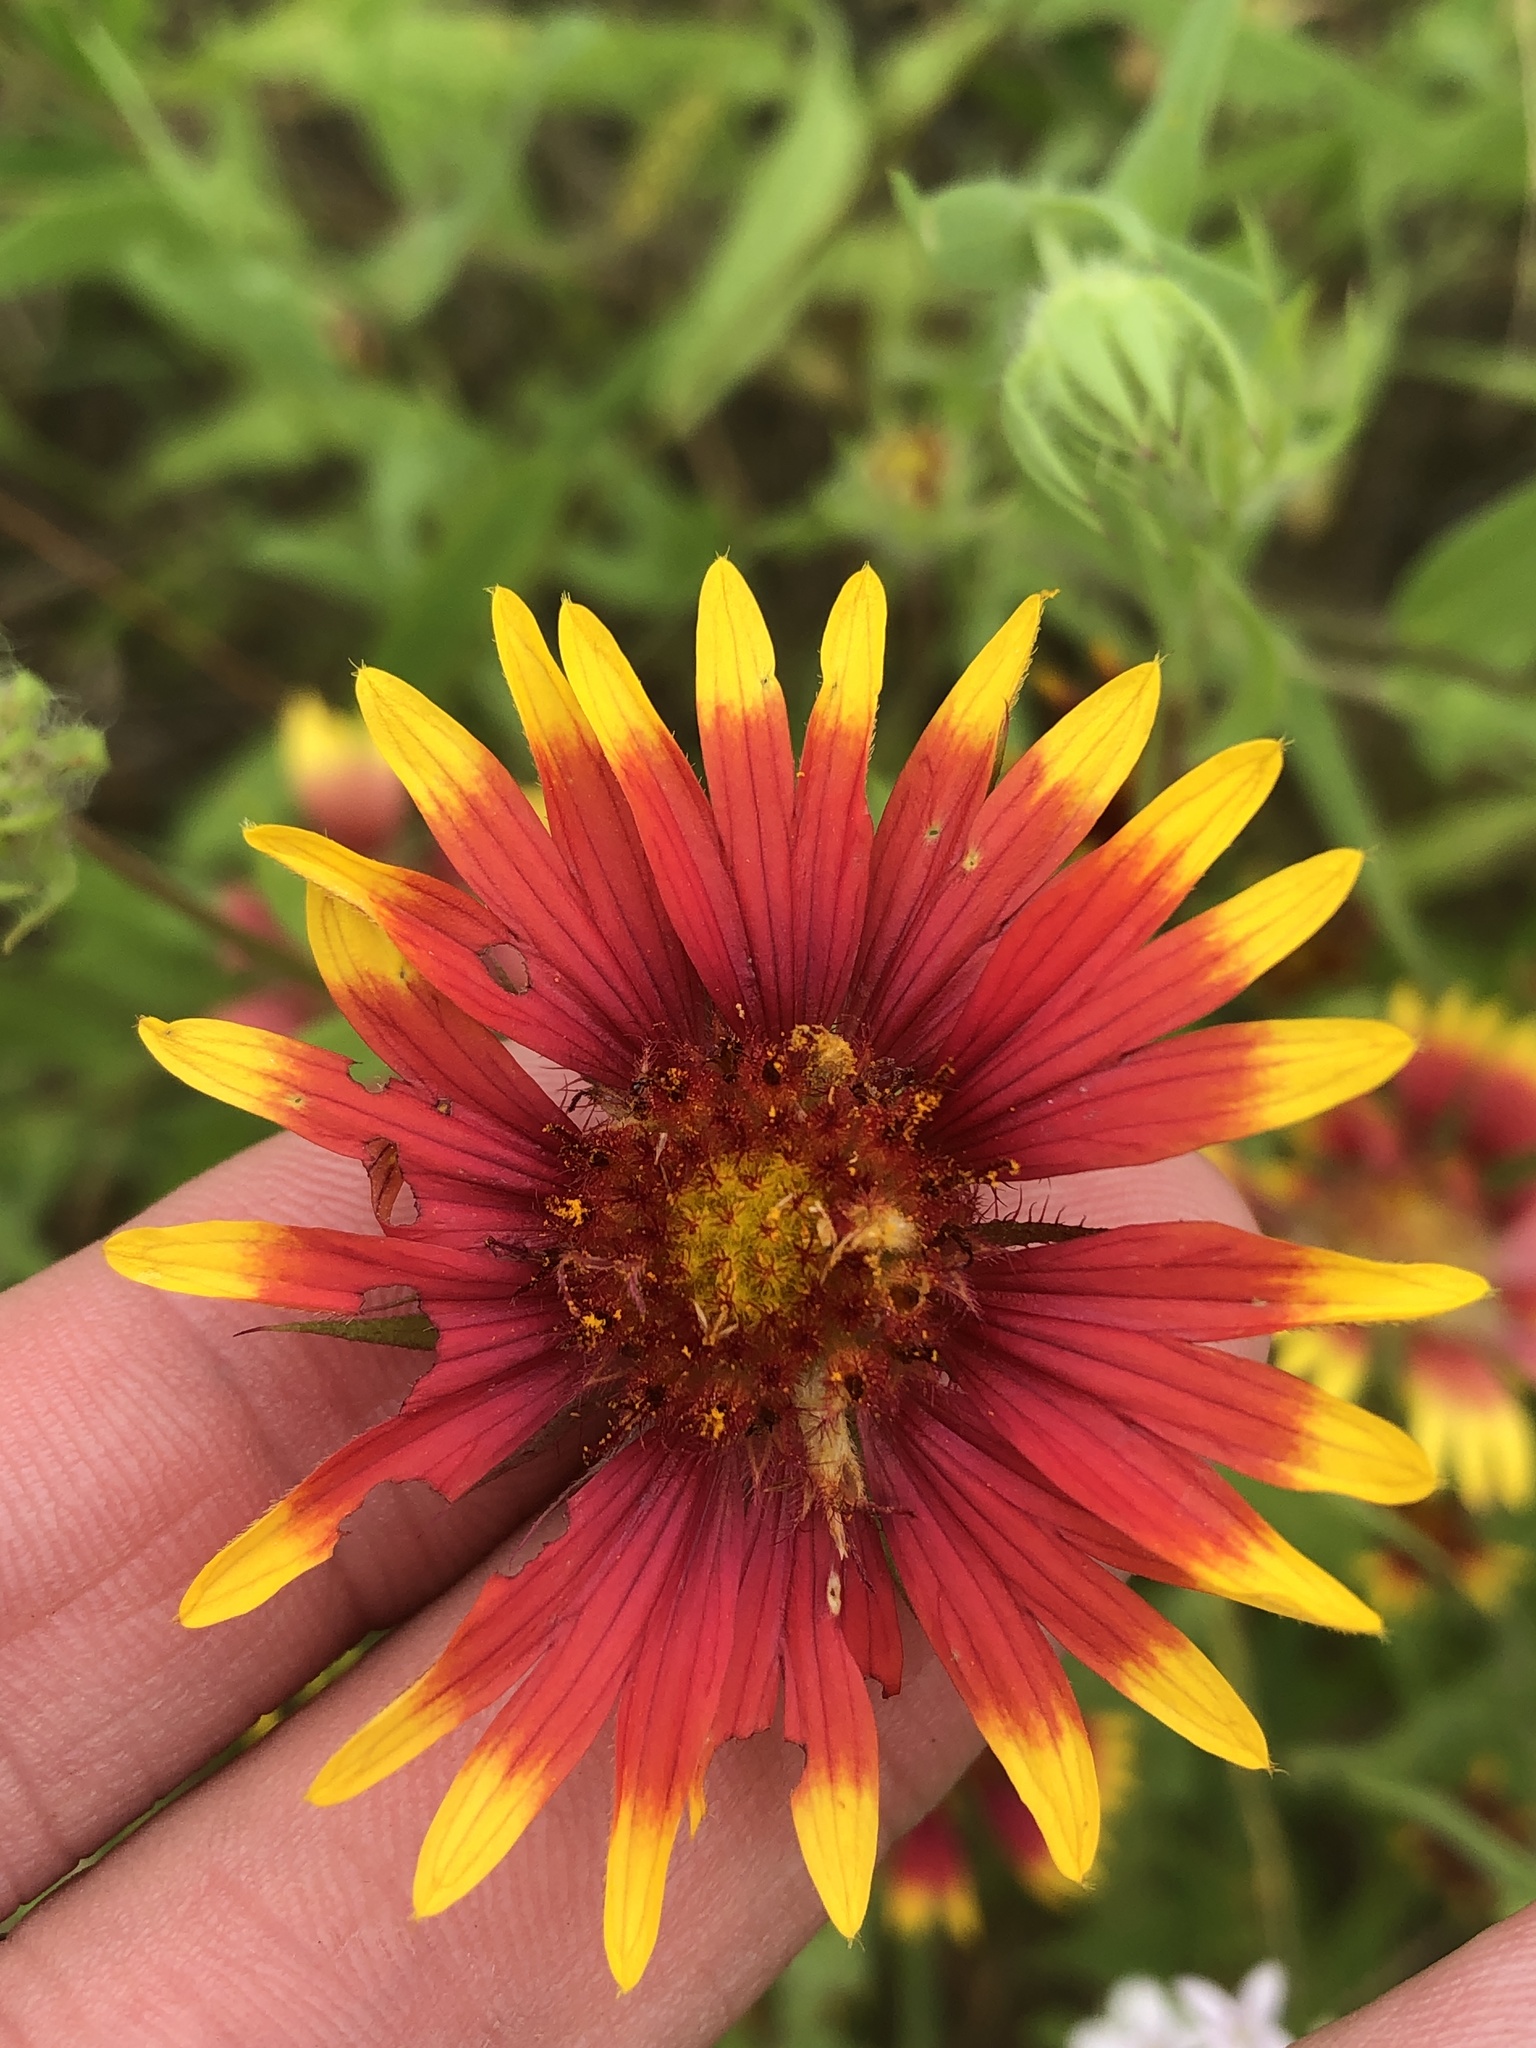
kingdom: Plantae
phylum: Tracheophyta
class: Magnoliopsida
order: Asterales
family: Asteraceae
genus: Gaillardia
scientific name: Gaillardia pulchella
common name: Firewheel
